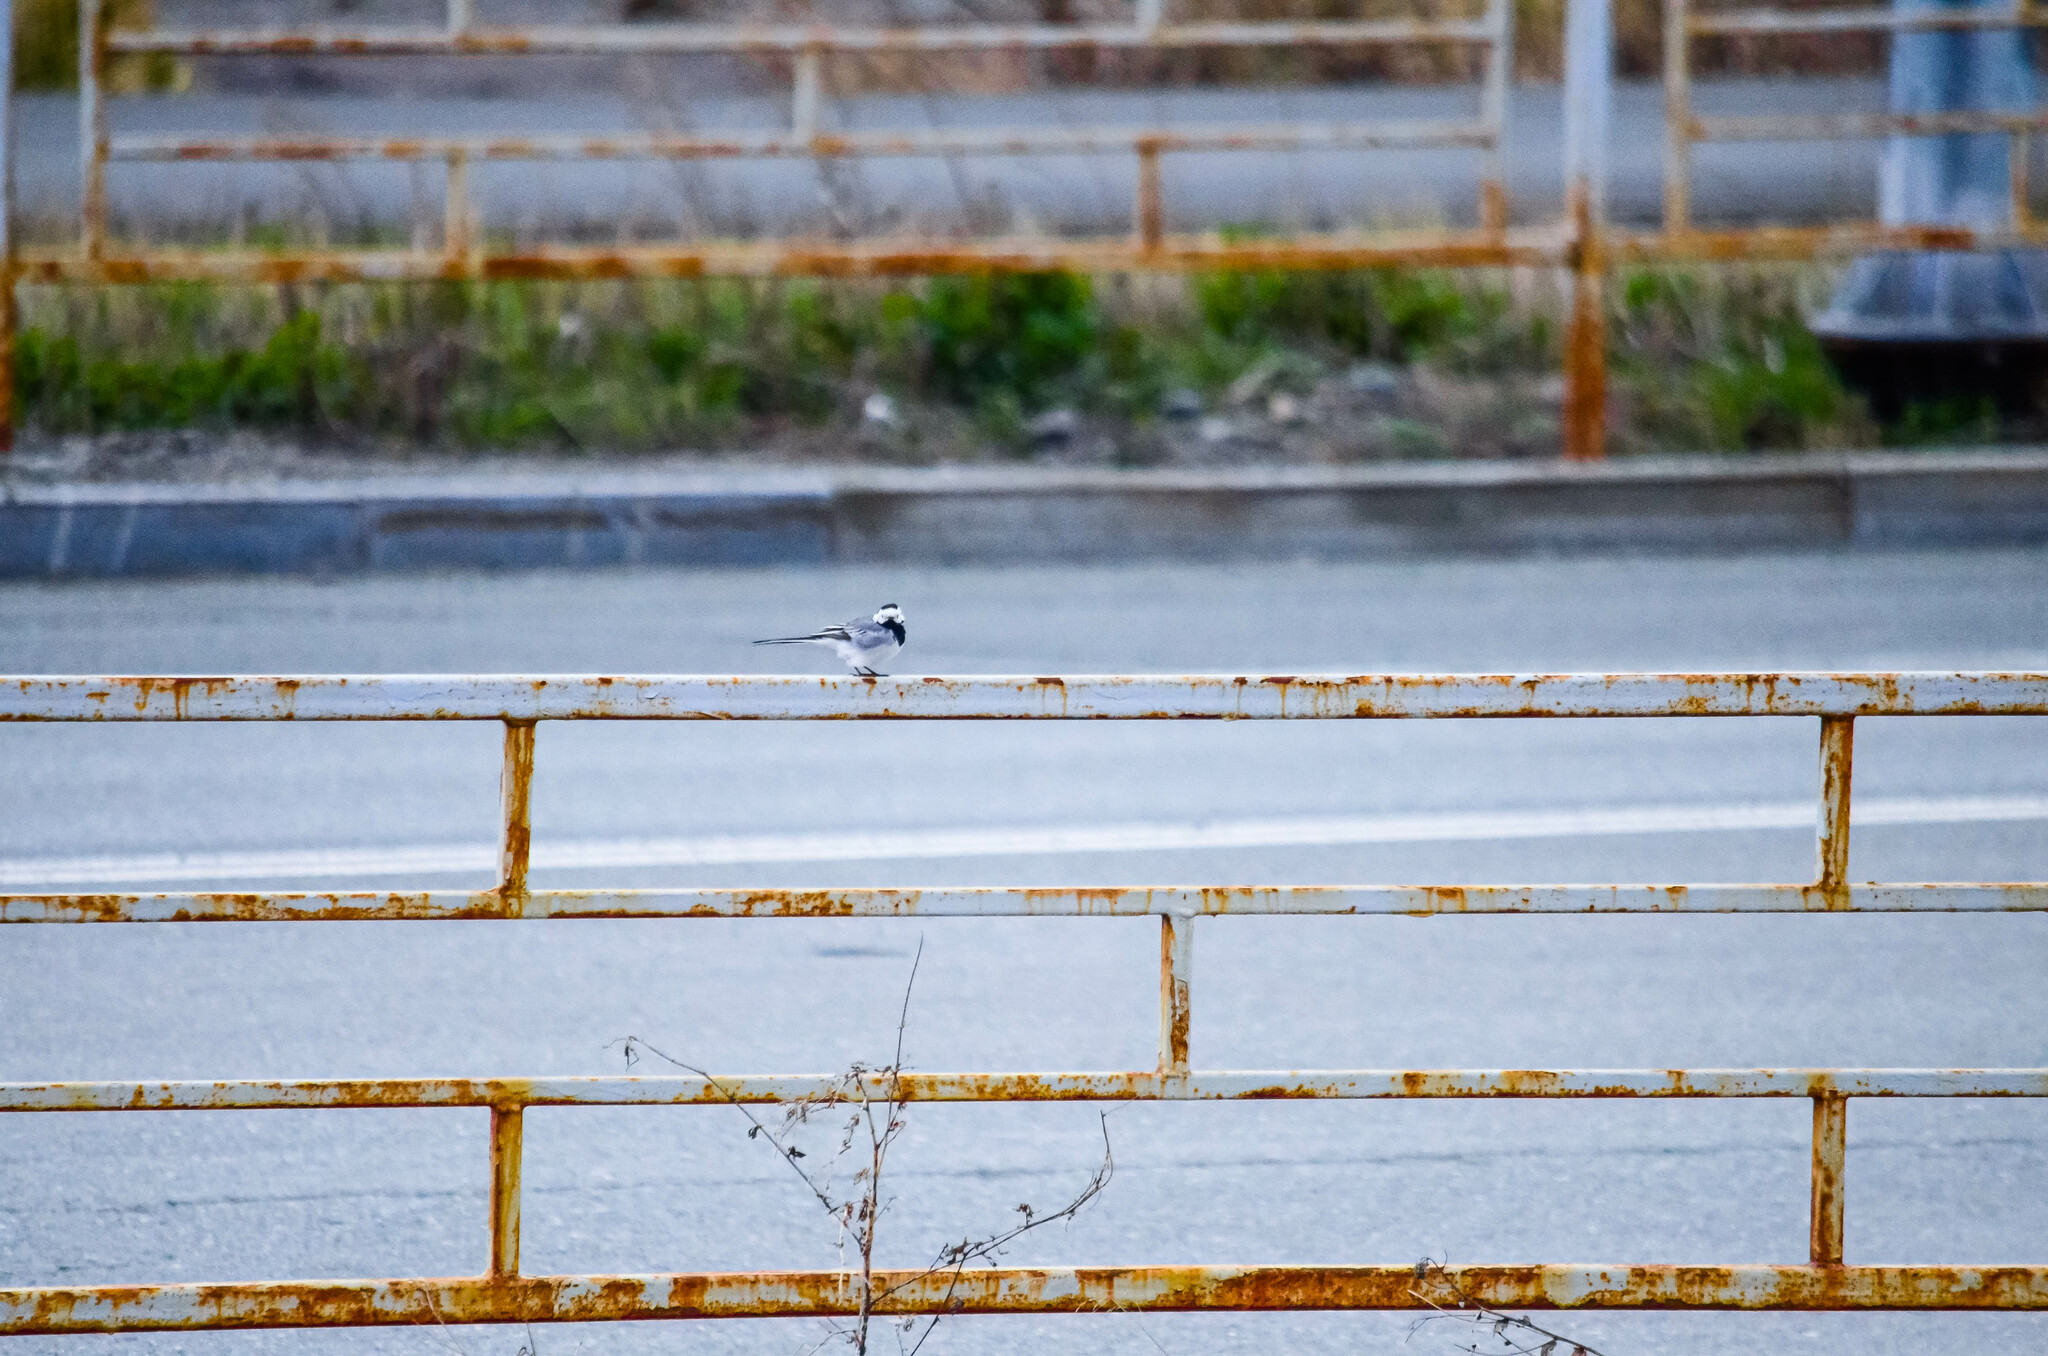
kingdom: Animalia
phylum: Chordata
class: Aves
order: Passeriformes
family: Motacillidae
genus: Motacilla
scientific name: Motacilla alba
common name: White wagtail
